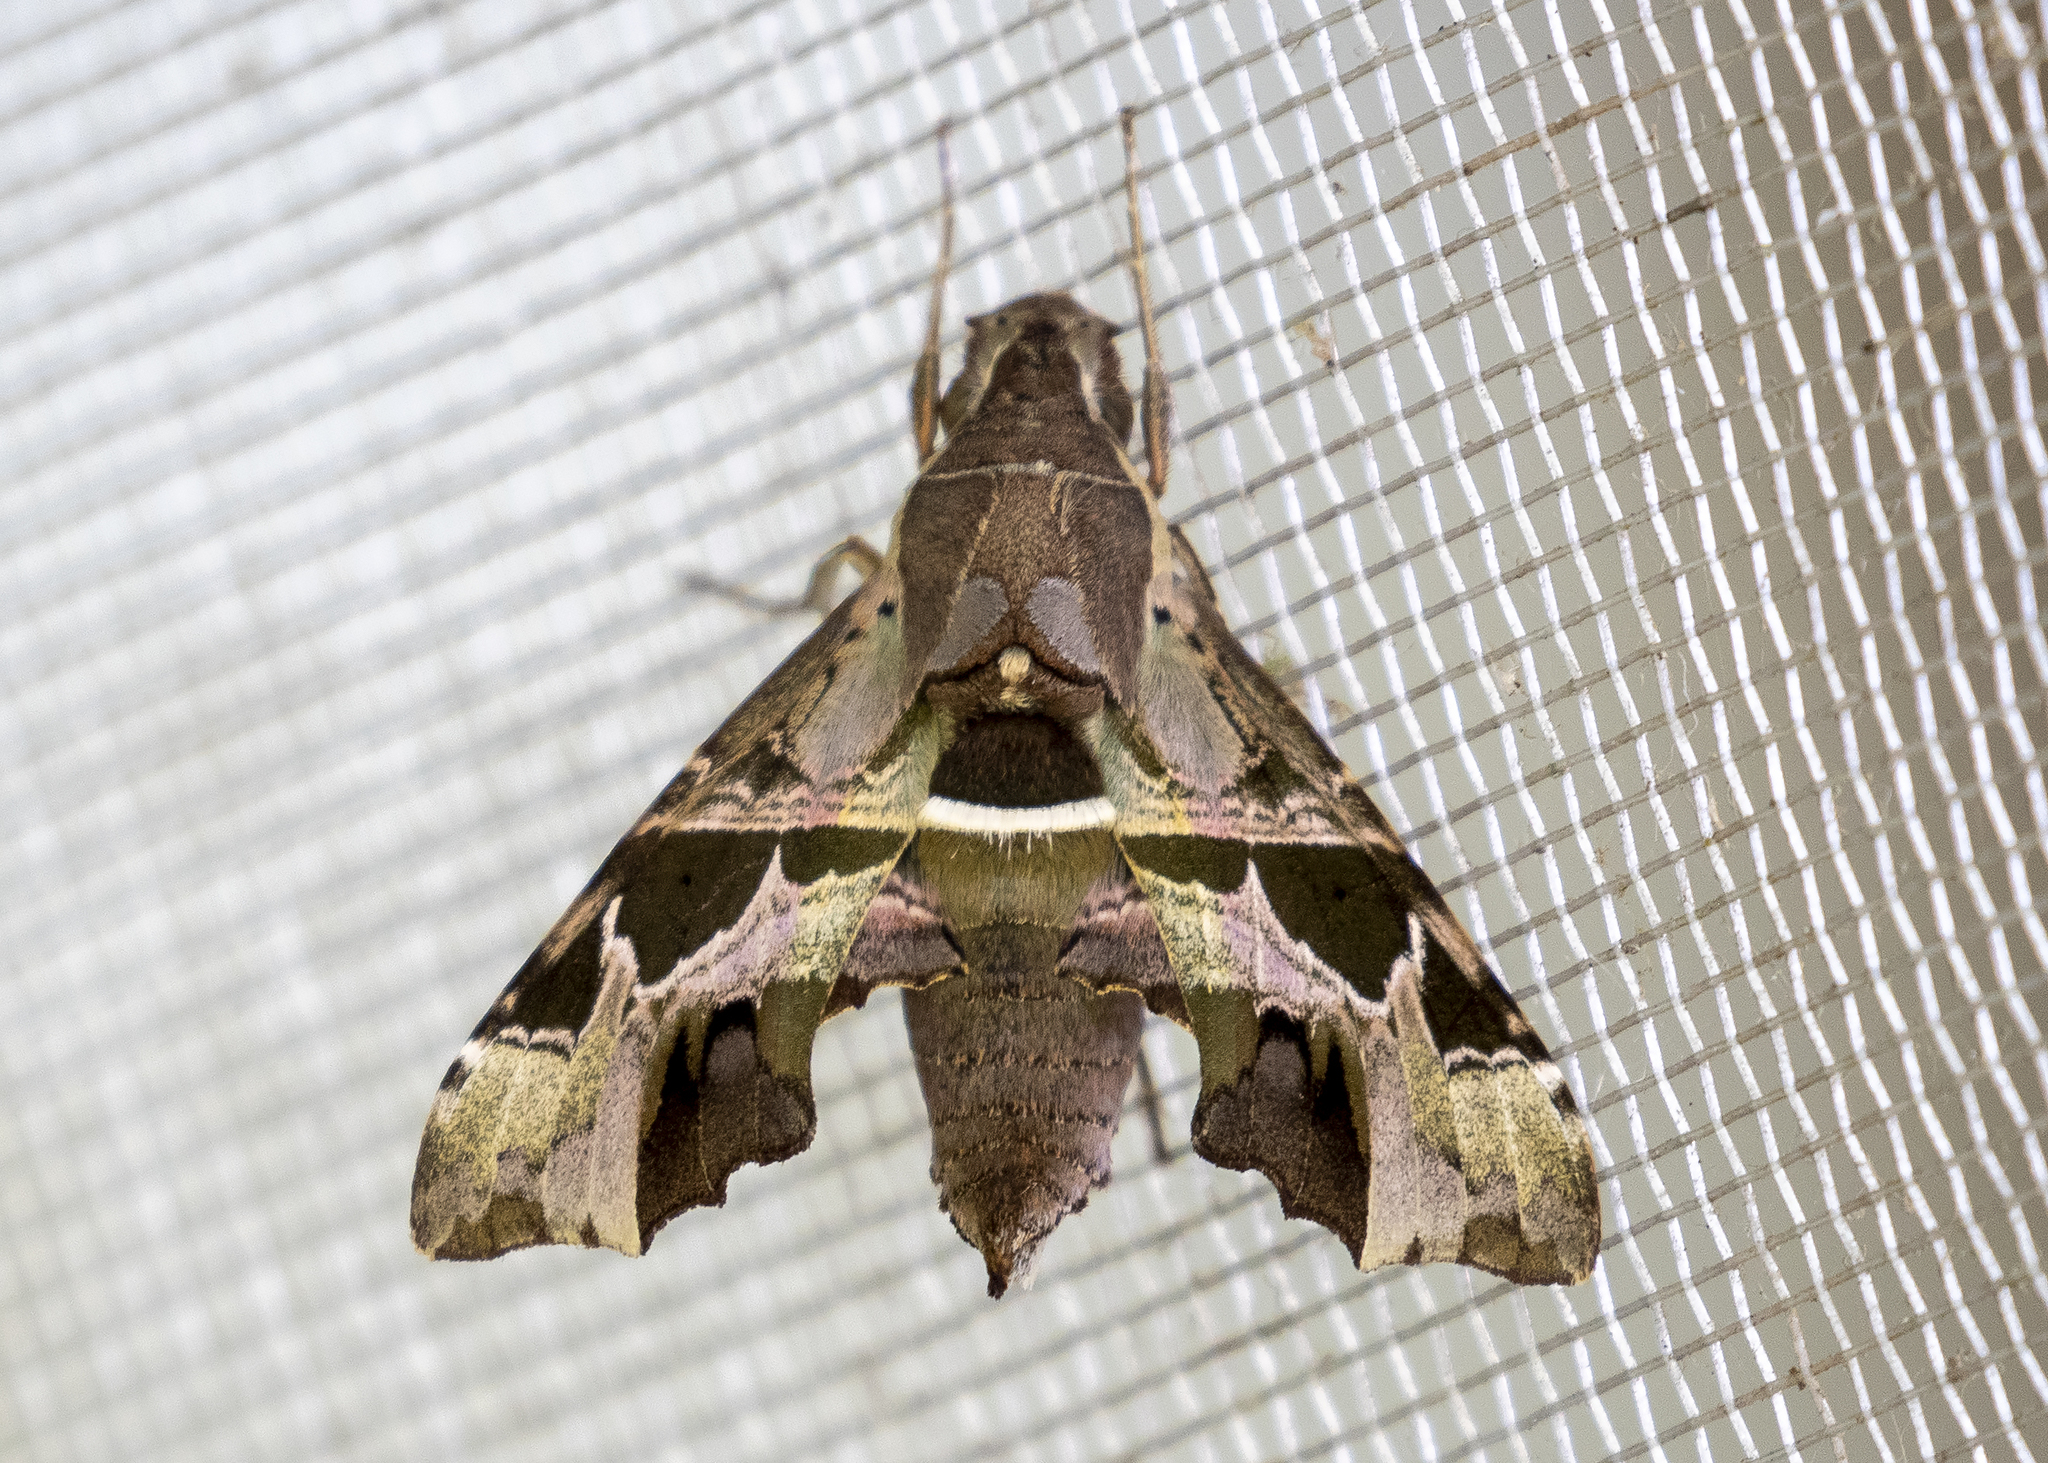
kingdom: Animalia
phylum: Arthropoda
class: Insecta
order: Lepidoptera
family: Sphingidae
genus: Unzela
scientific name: Unzela japix
